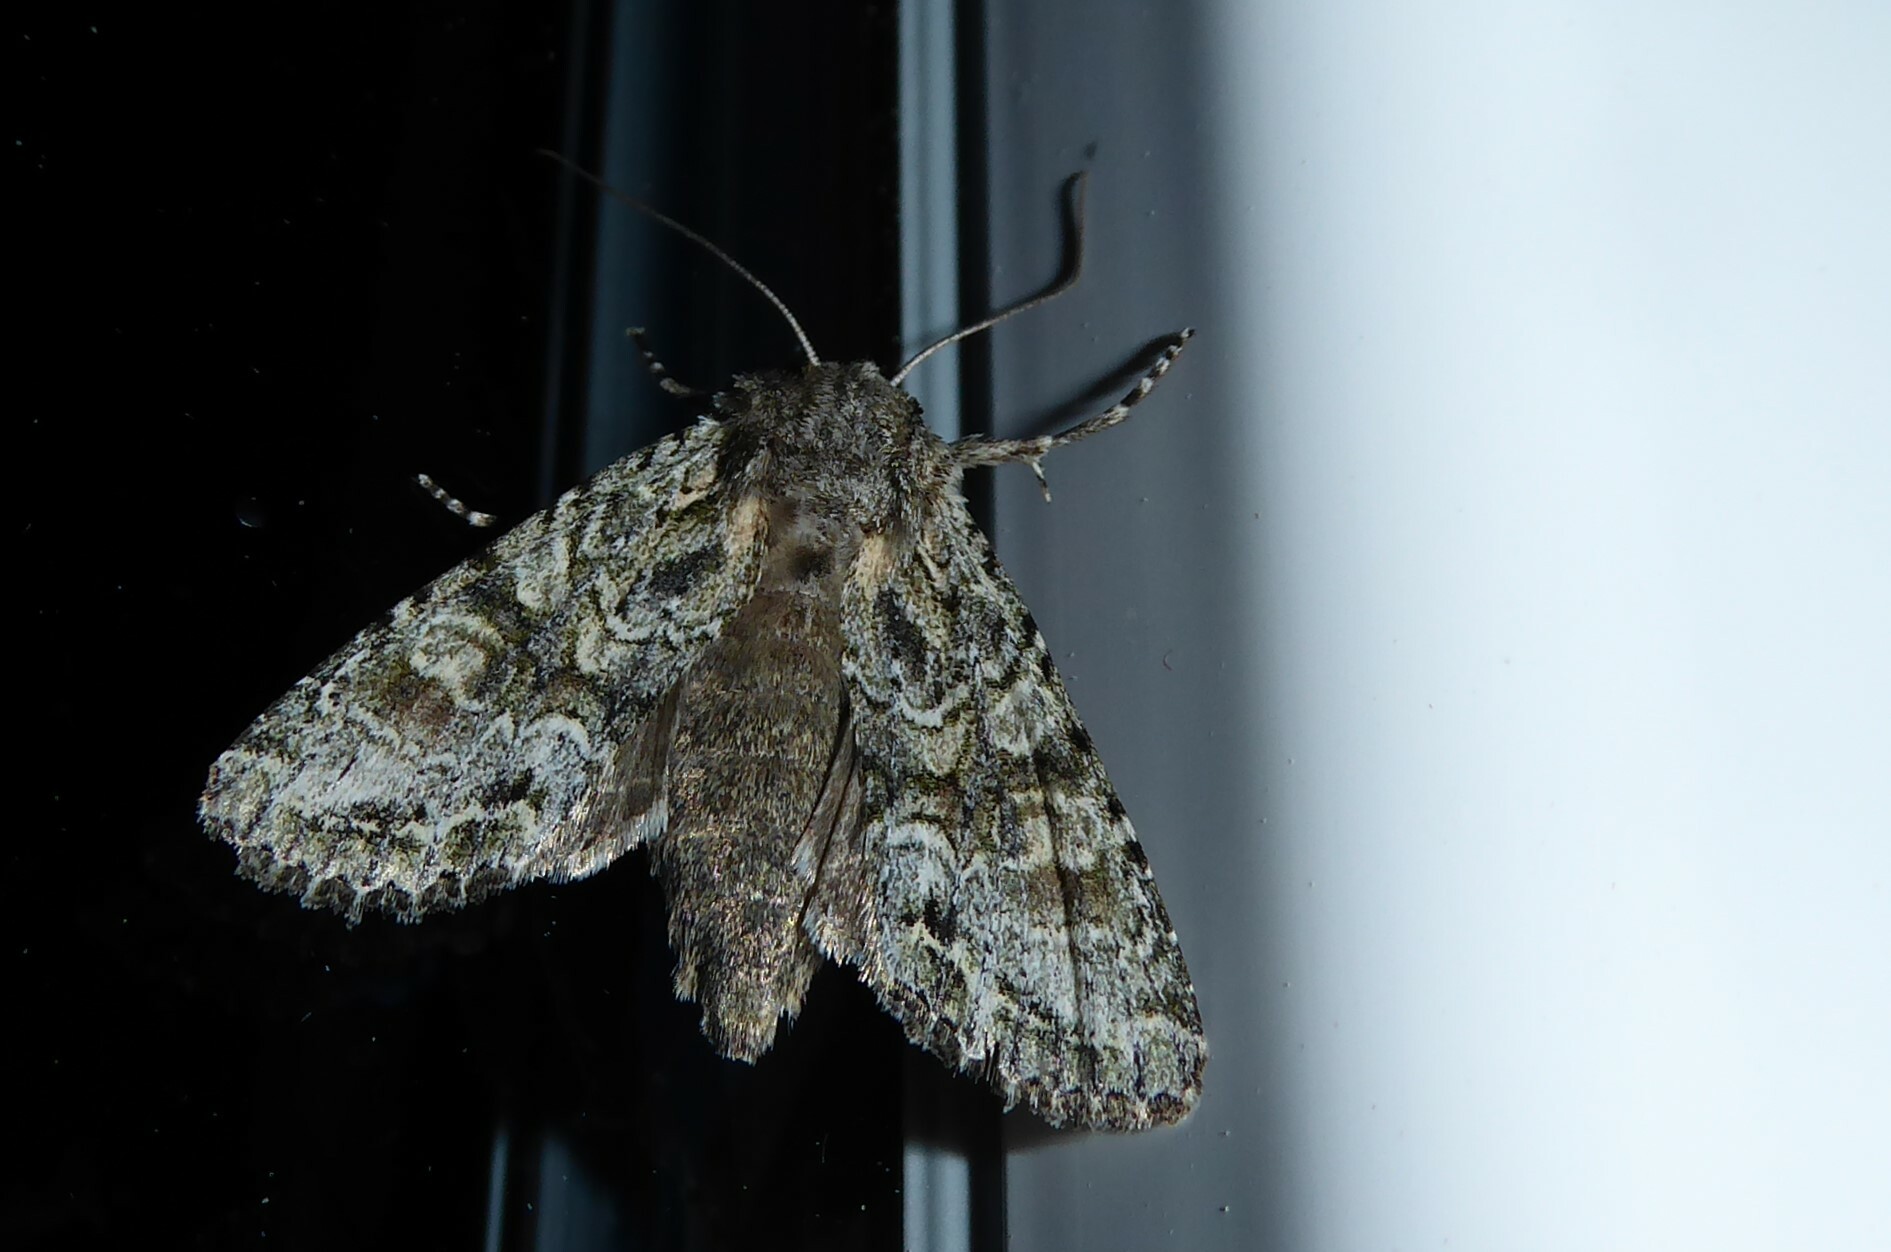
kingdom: Animalia
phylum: Arthropoda
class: Insecta
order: Lepidoptera
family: Noctuidae
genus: Ichneutica
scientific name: Ichneutica mutans
